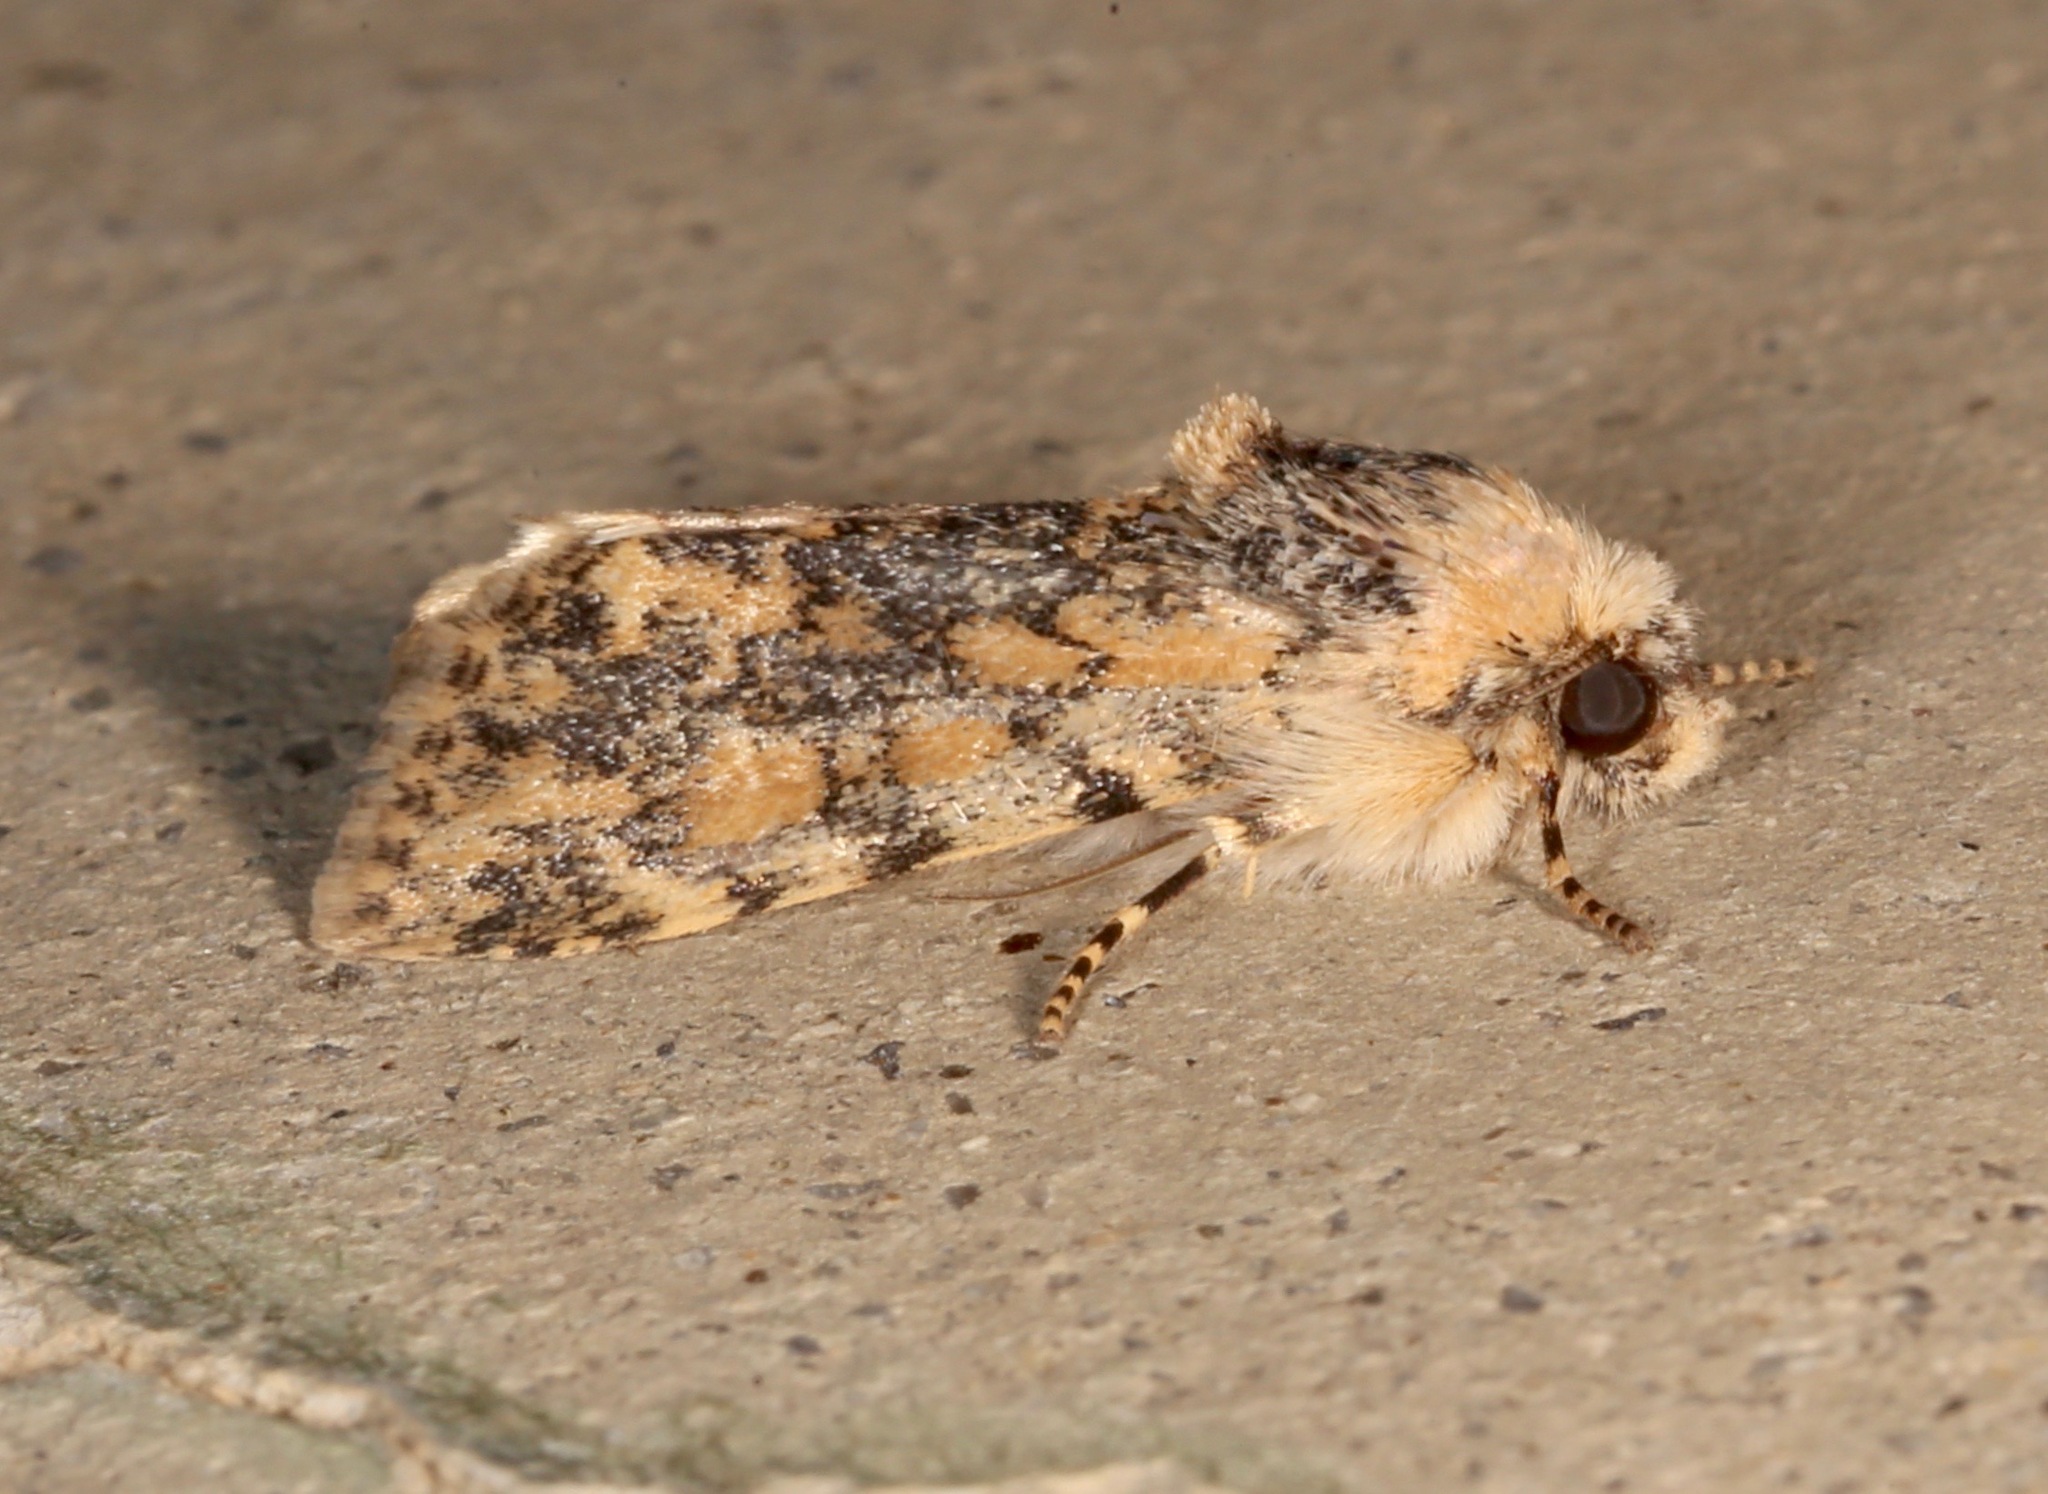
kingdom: Animalia
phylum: Arthropoda
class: Insecta
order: Lepidoptera
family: Noctuidae
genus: Sympistis
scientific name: Sympistis singularis
